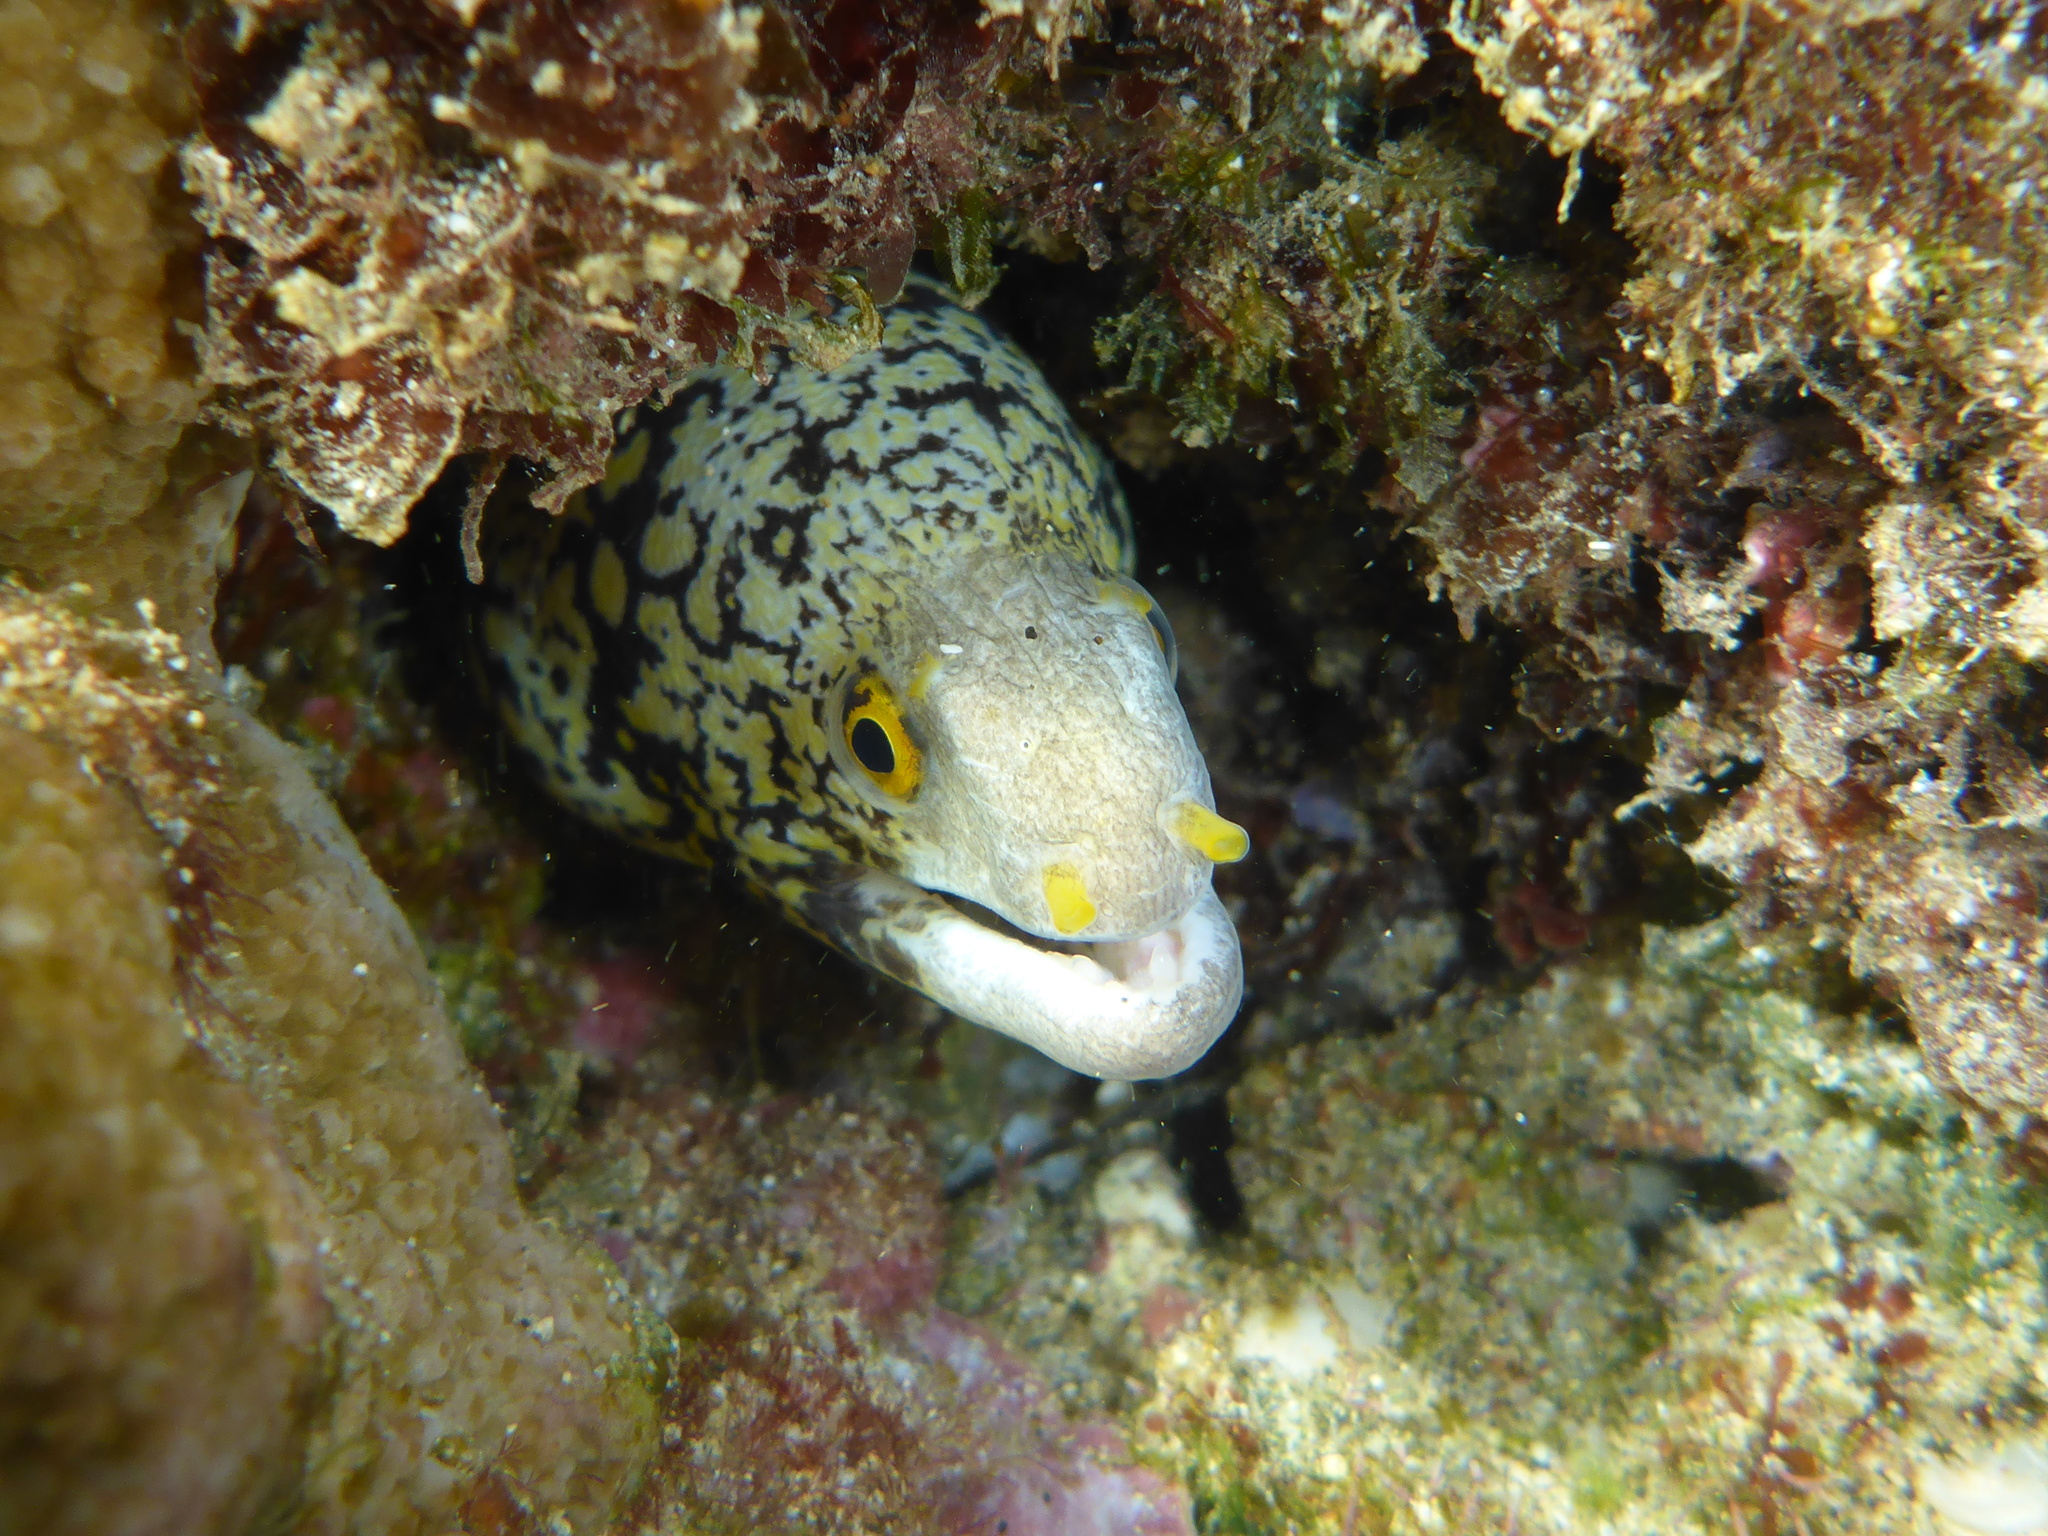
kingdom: Animalia
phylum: Chordata
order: Anguilliformes
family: Muraenidae
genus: Echidna
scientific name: Echidna nebulosa
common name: Snowflake moray
